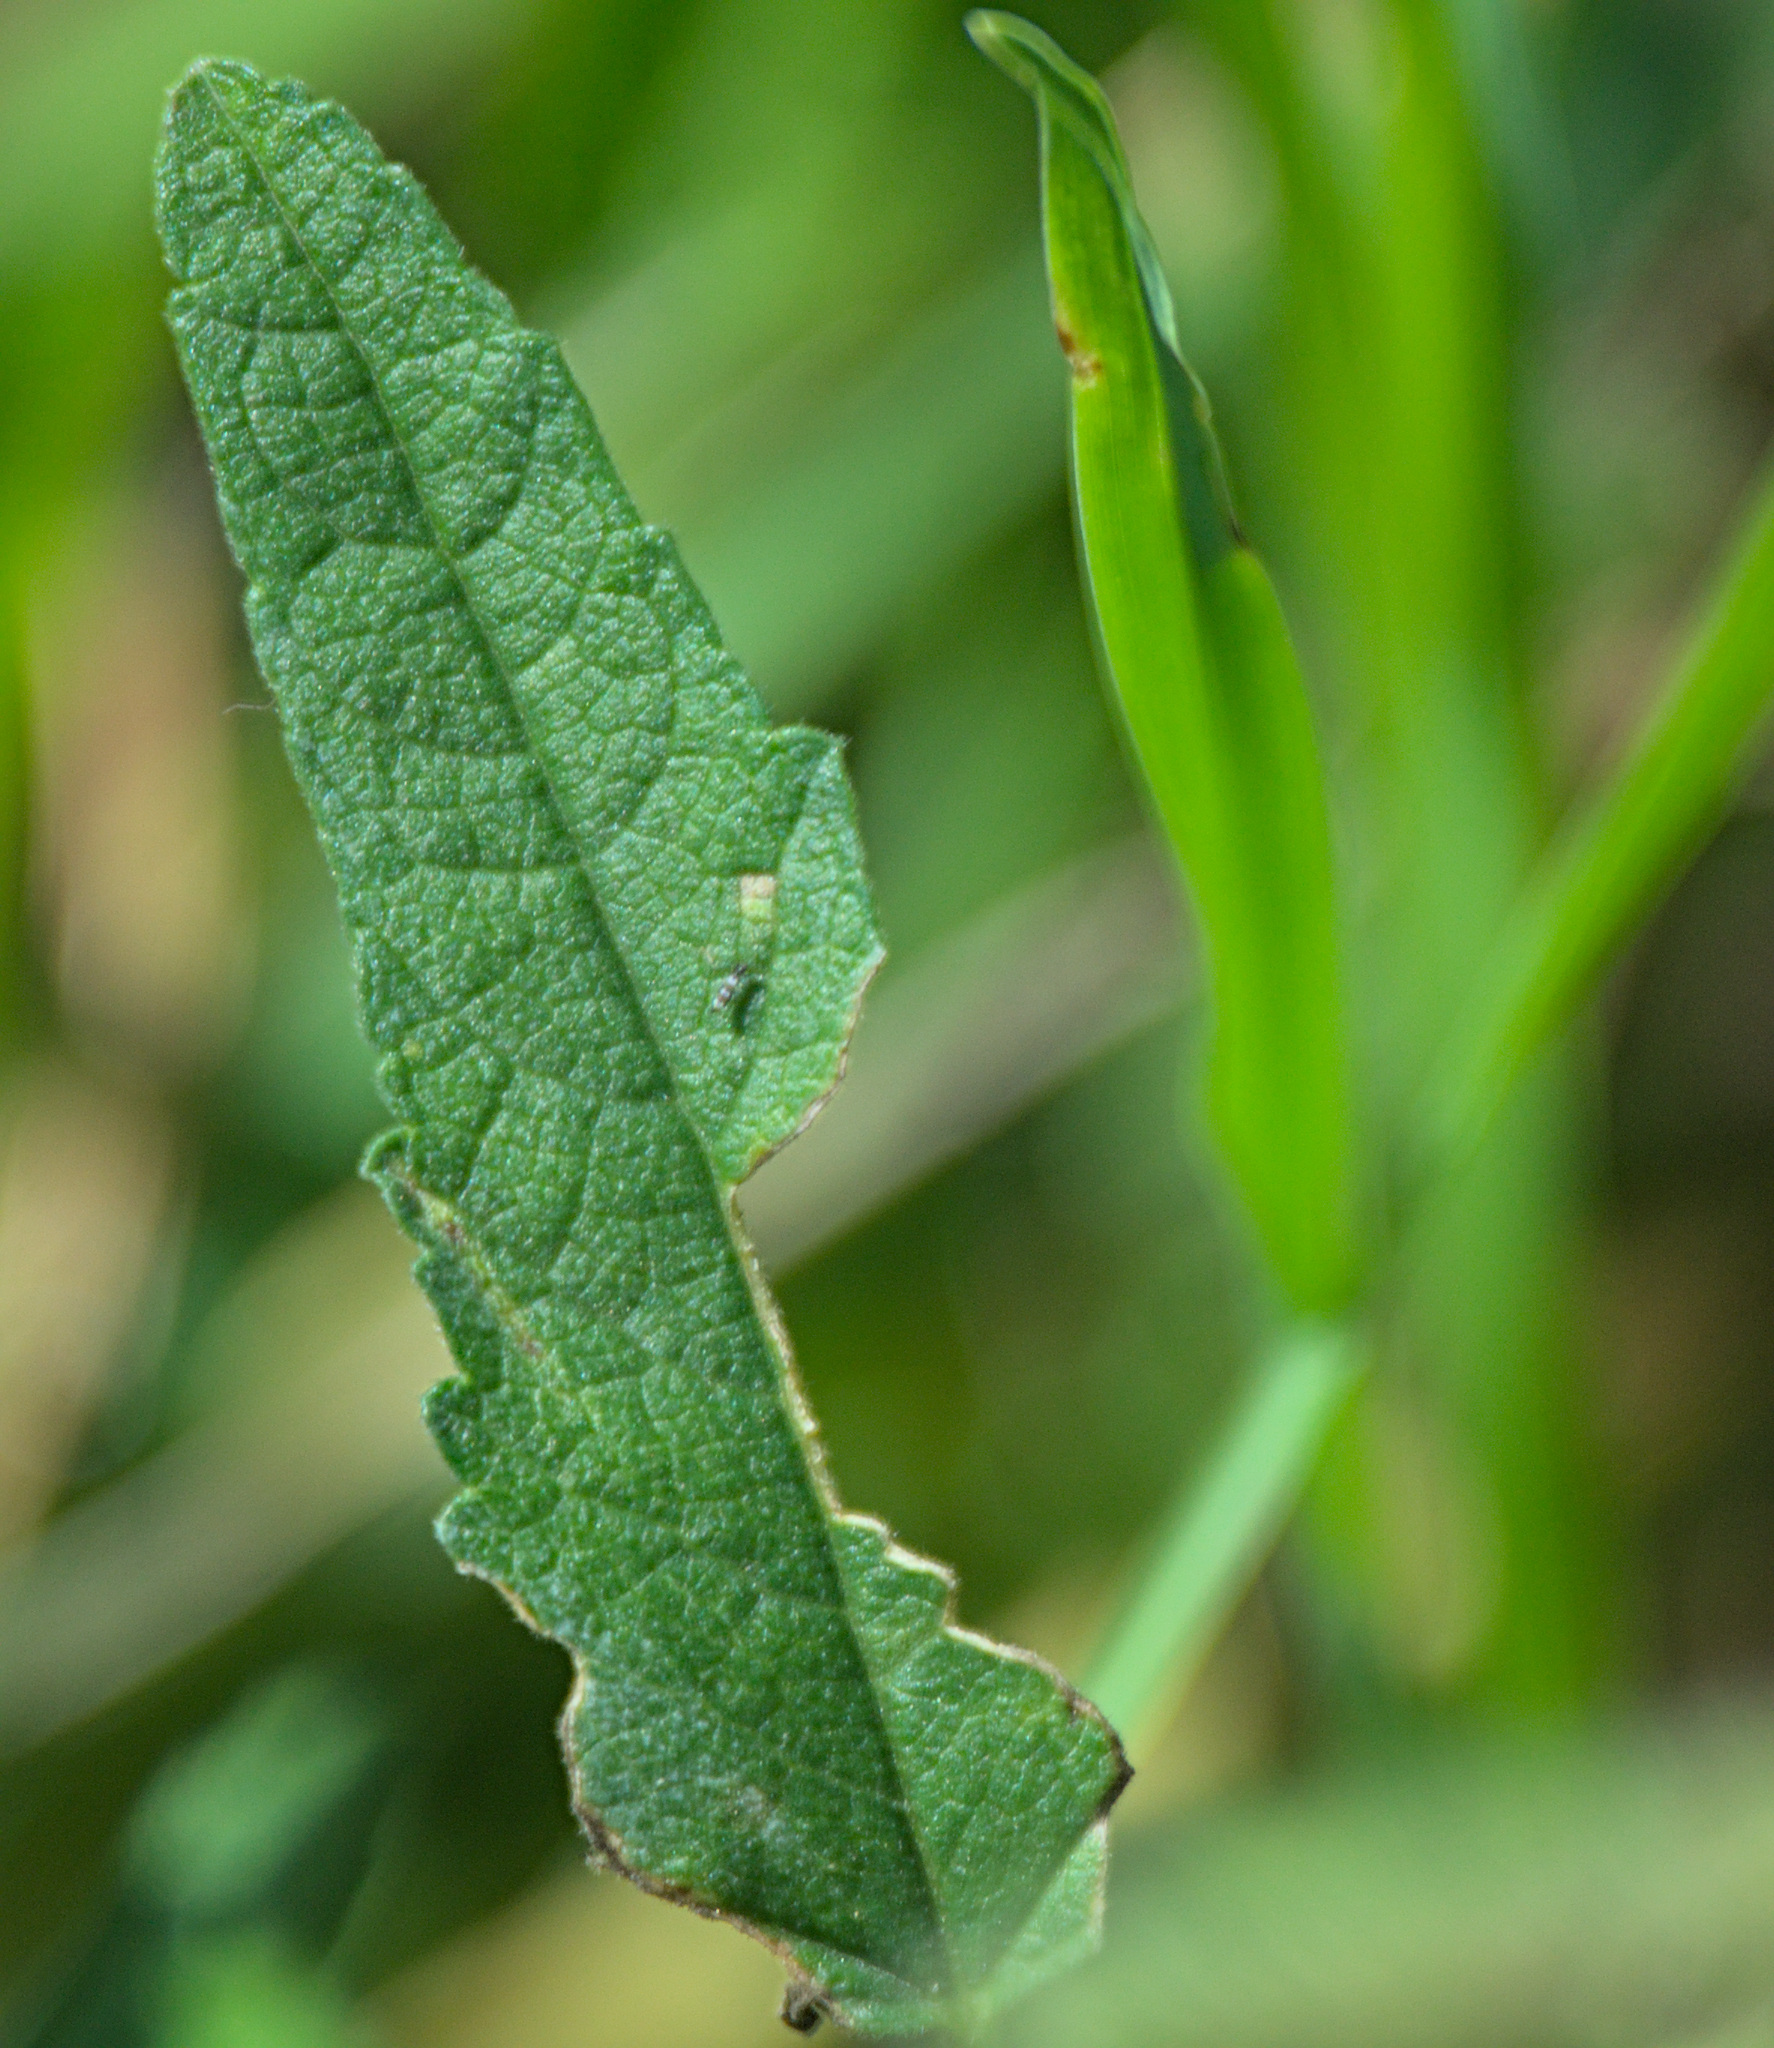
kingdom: Plantae
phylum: Tracheophyta
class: Magnoliopsida
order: Malvales
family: Malvaceae
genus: Malva
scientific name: Malva thuringiaca
